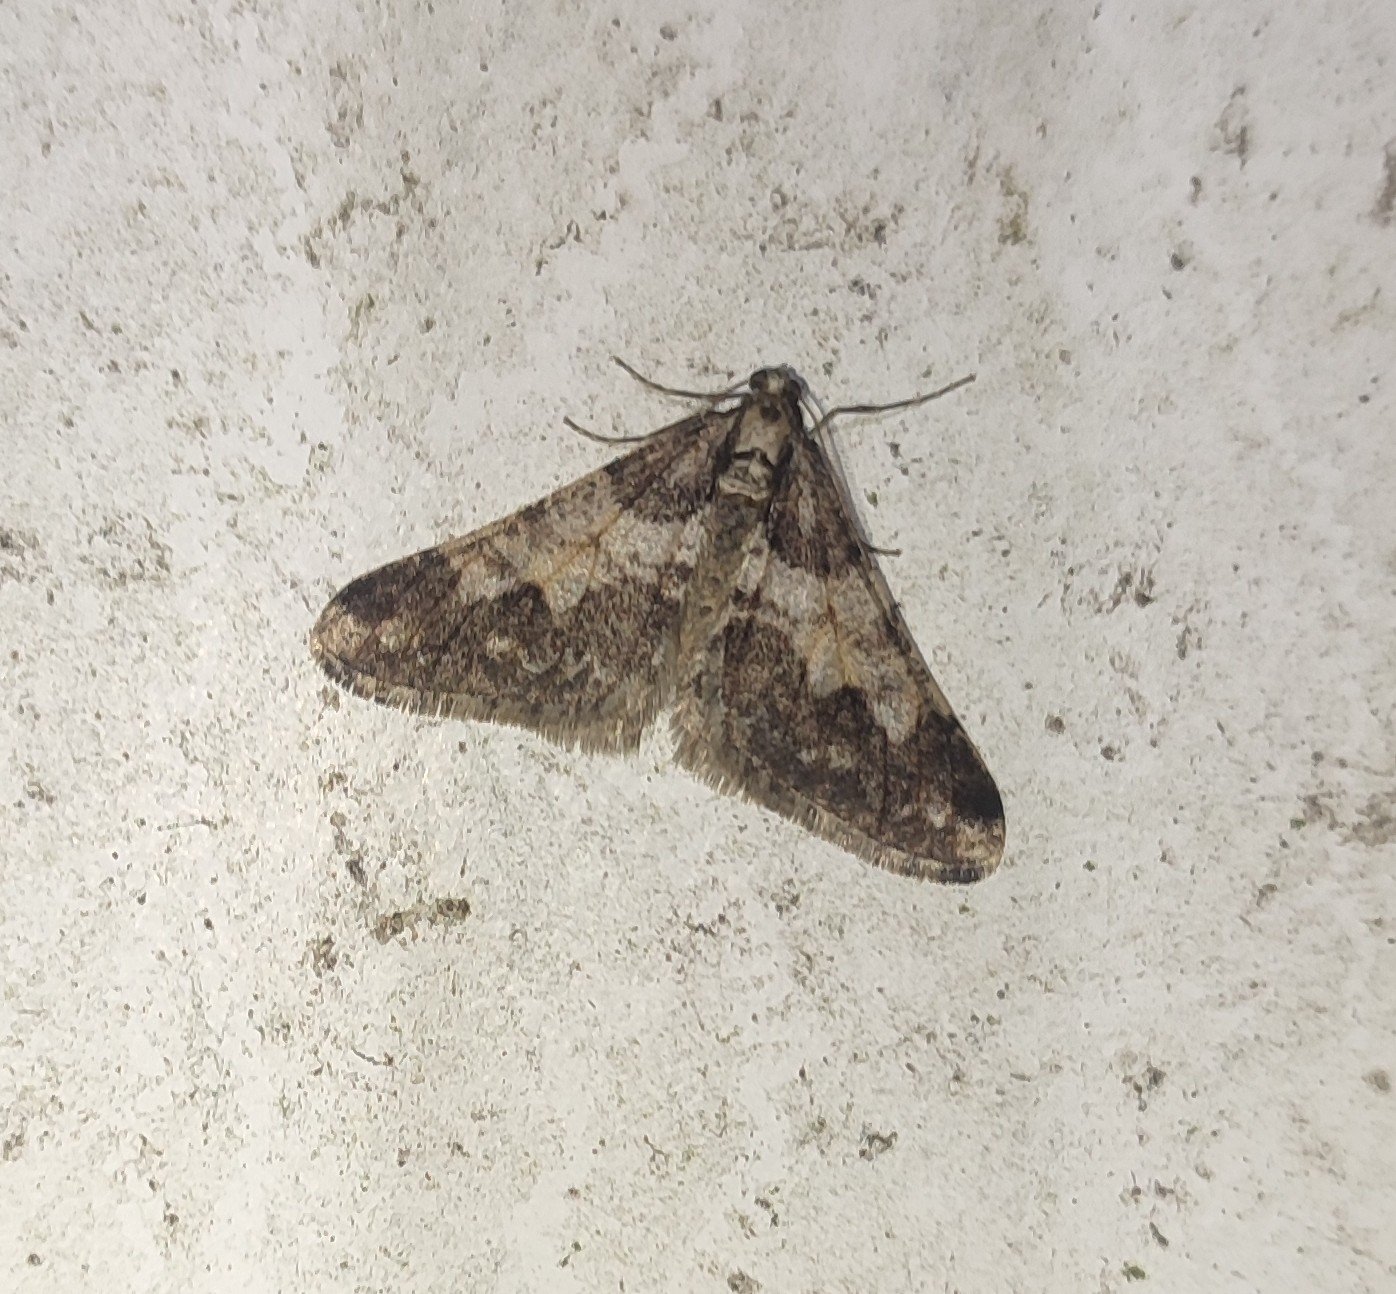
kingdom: Animalia
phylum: Arthropoda
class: Insecta
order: Lepidoptera
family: Geometridae
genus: Agriopis
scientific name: Agriopis leucophaearia
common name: Spring usher
